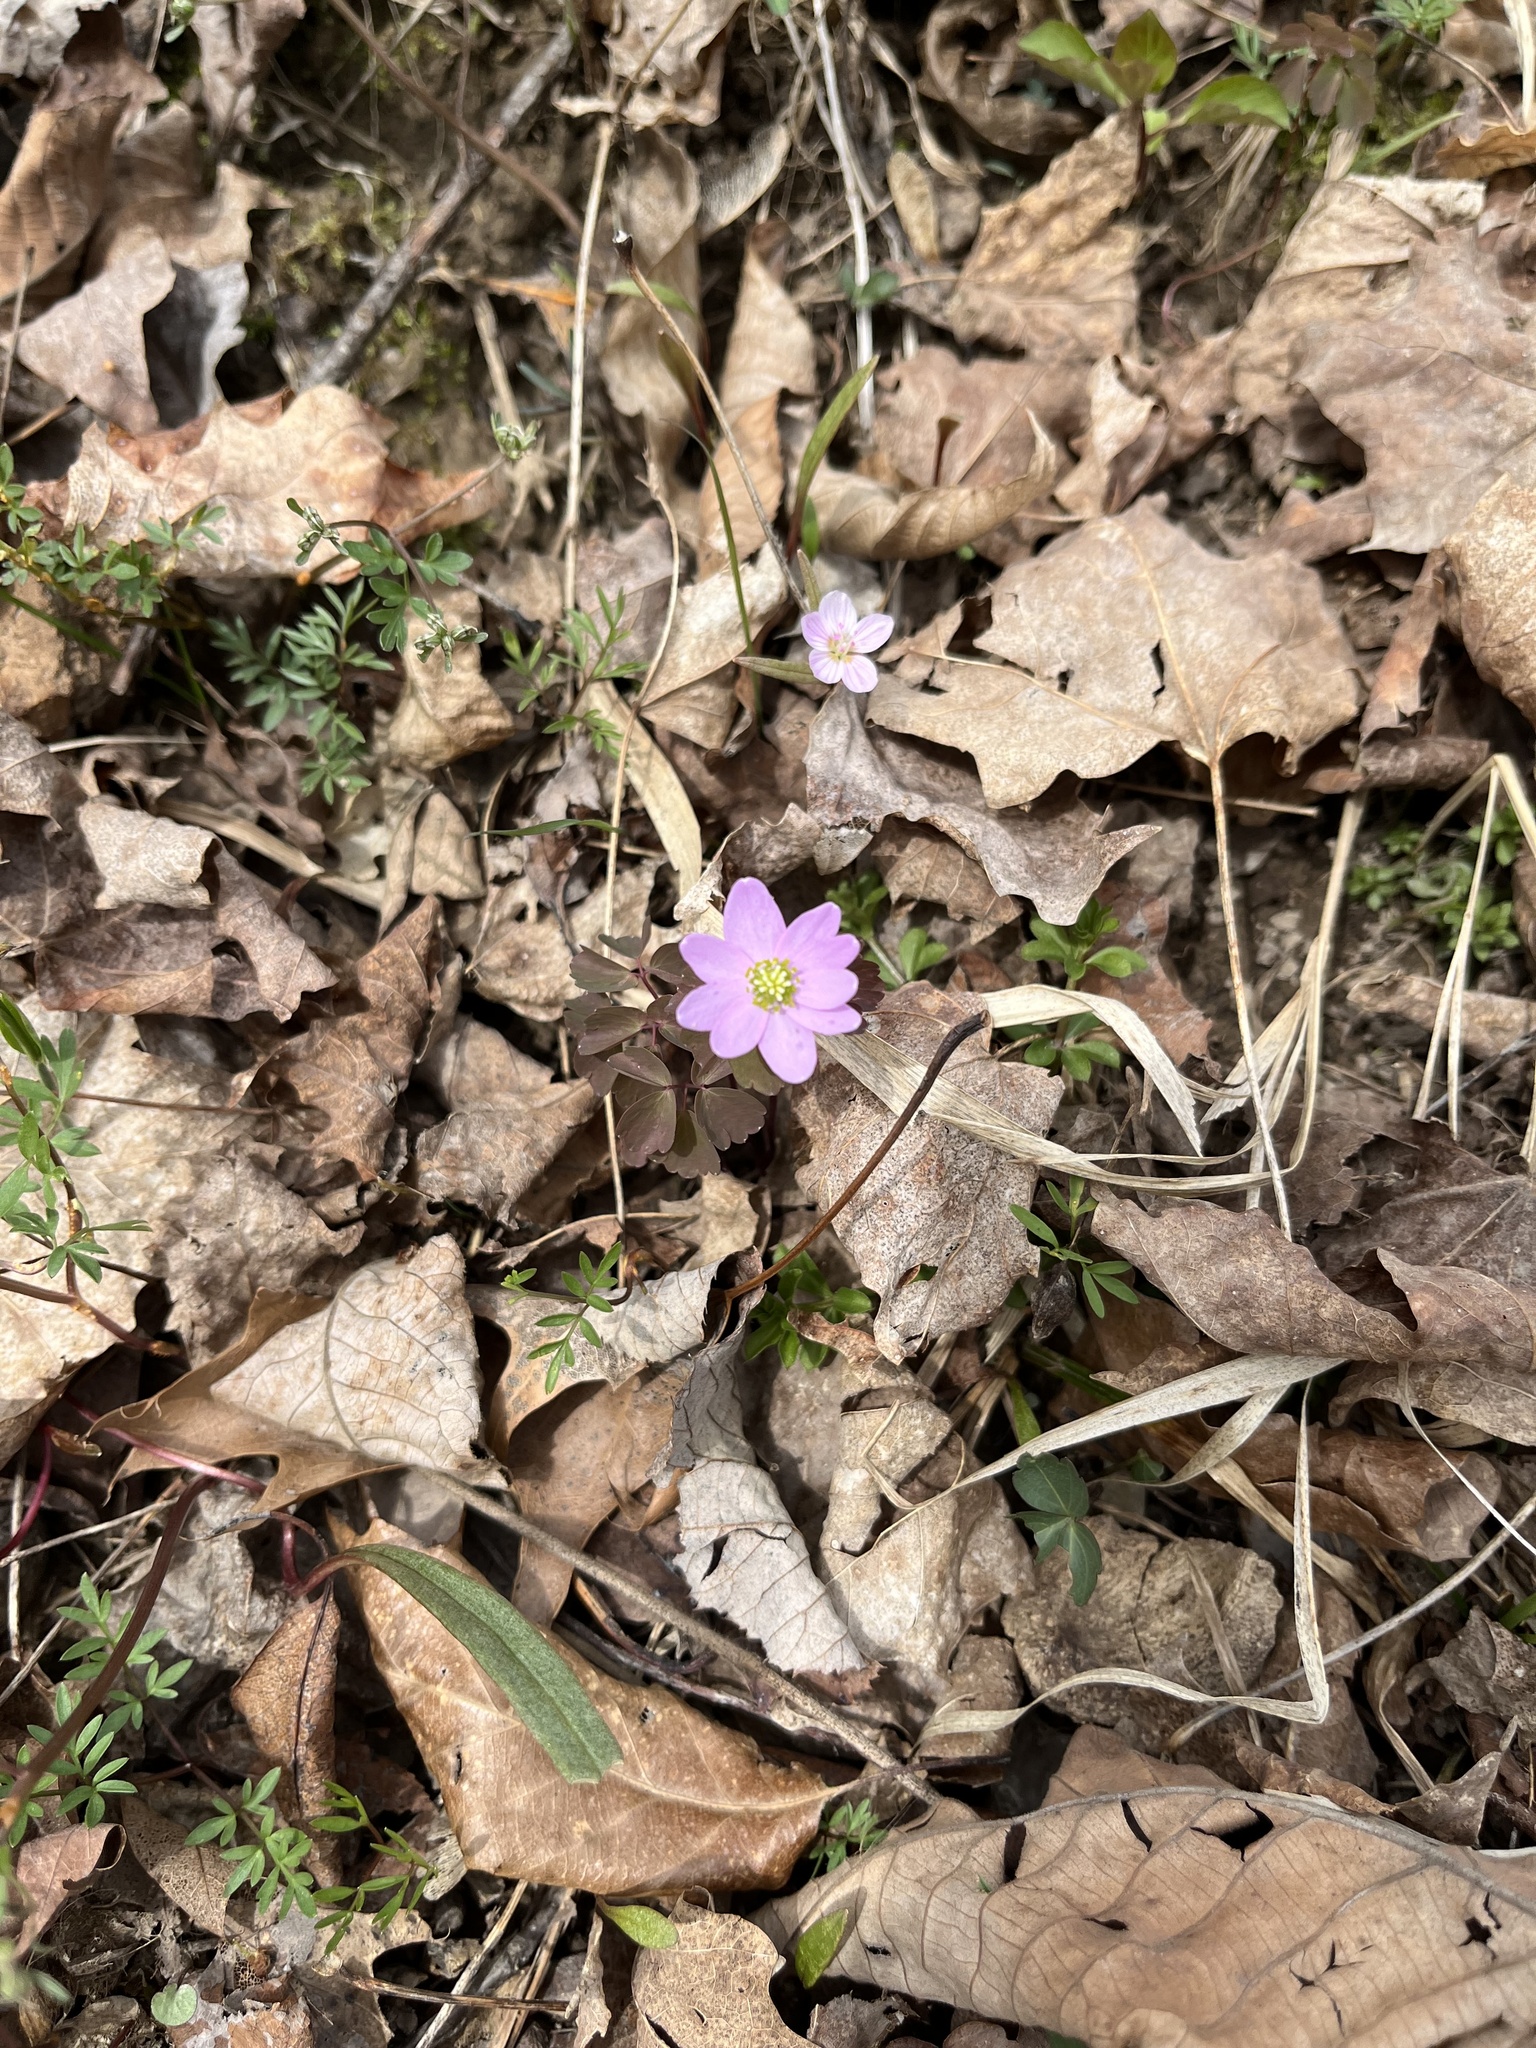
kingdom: Plantae
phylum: Tracheophyta
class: Magnoliopsida
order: Ranunculales
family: Ranunculaceae
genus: Thalictrum
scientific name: Thalictrum thalictroides
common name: Rue-anemone
